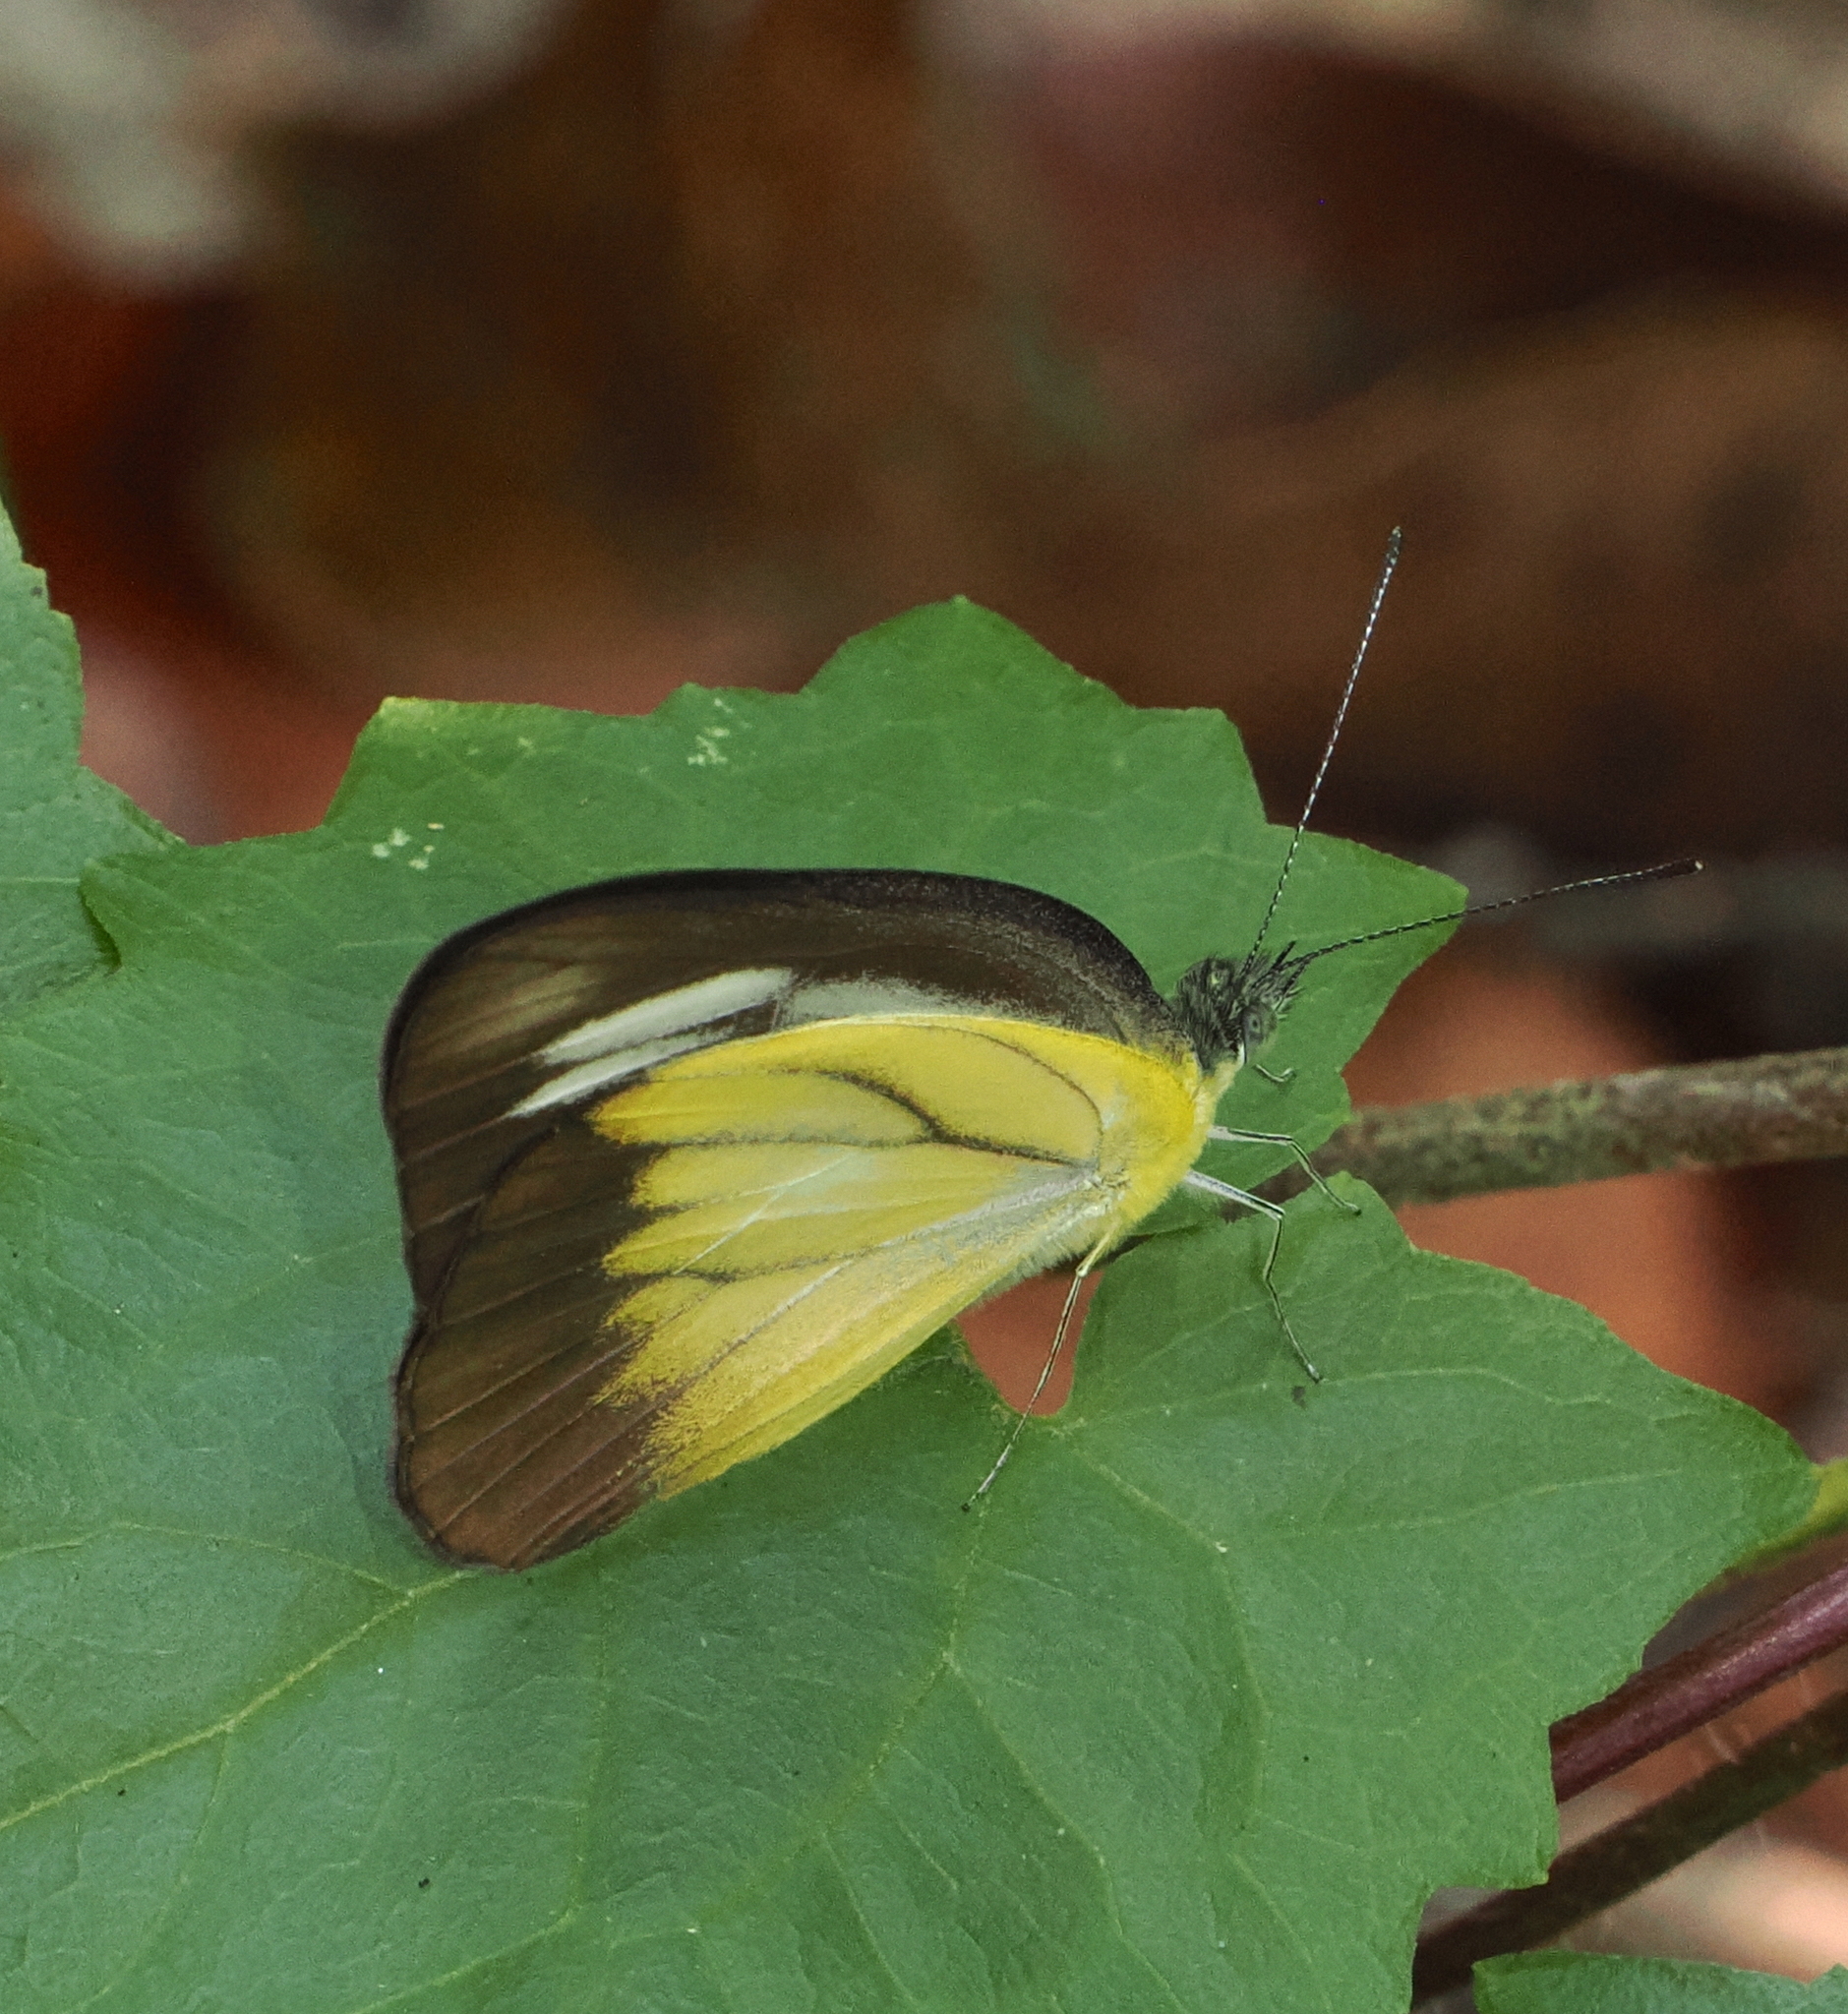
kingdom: Animalia
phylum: Arthropoda
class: Insecta
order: Lepidoptera
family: Pieridae
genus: Appias
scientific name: Appias lyncida
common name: Chocolate albatross
